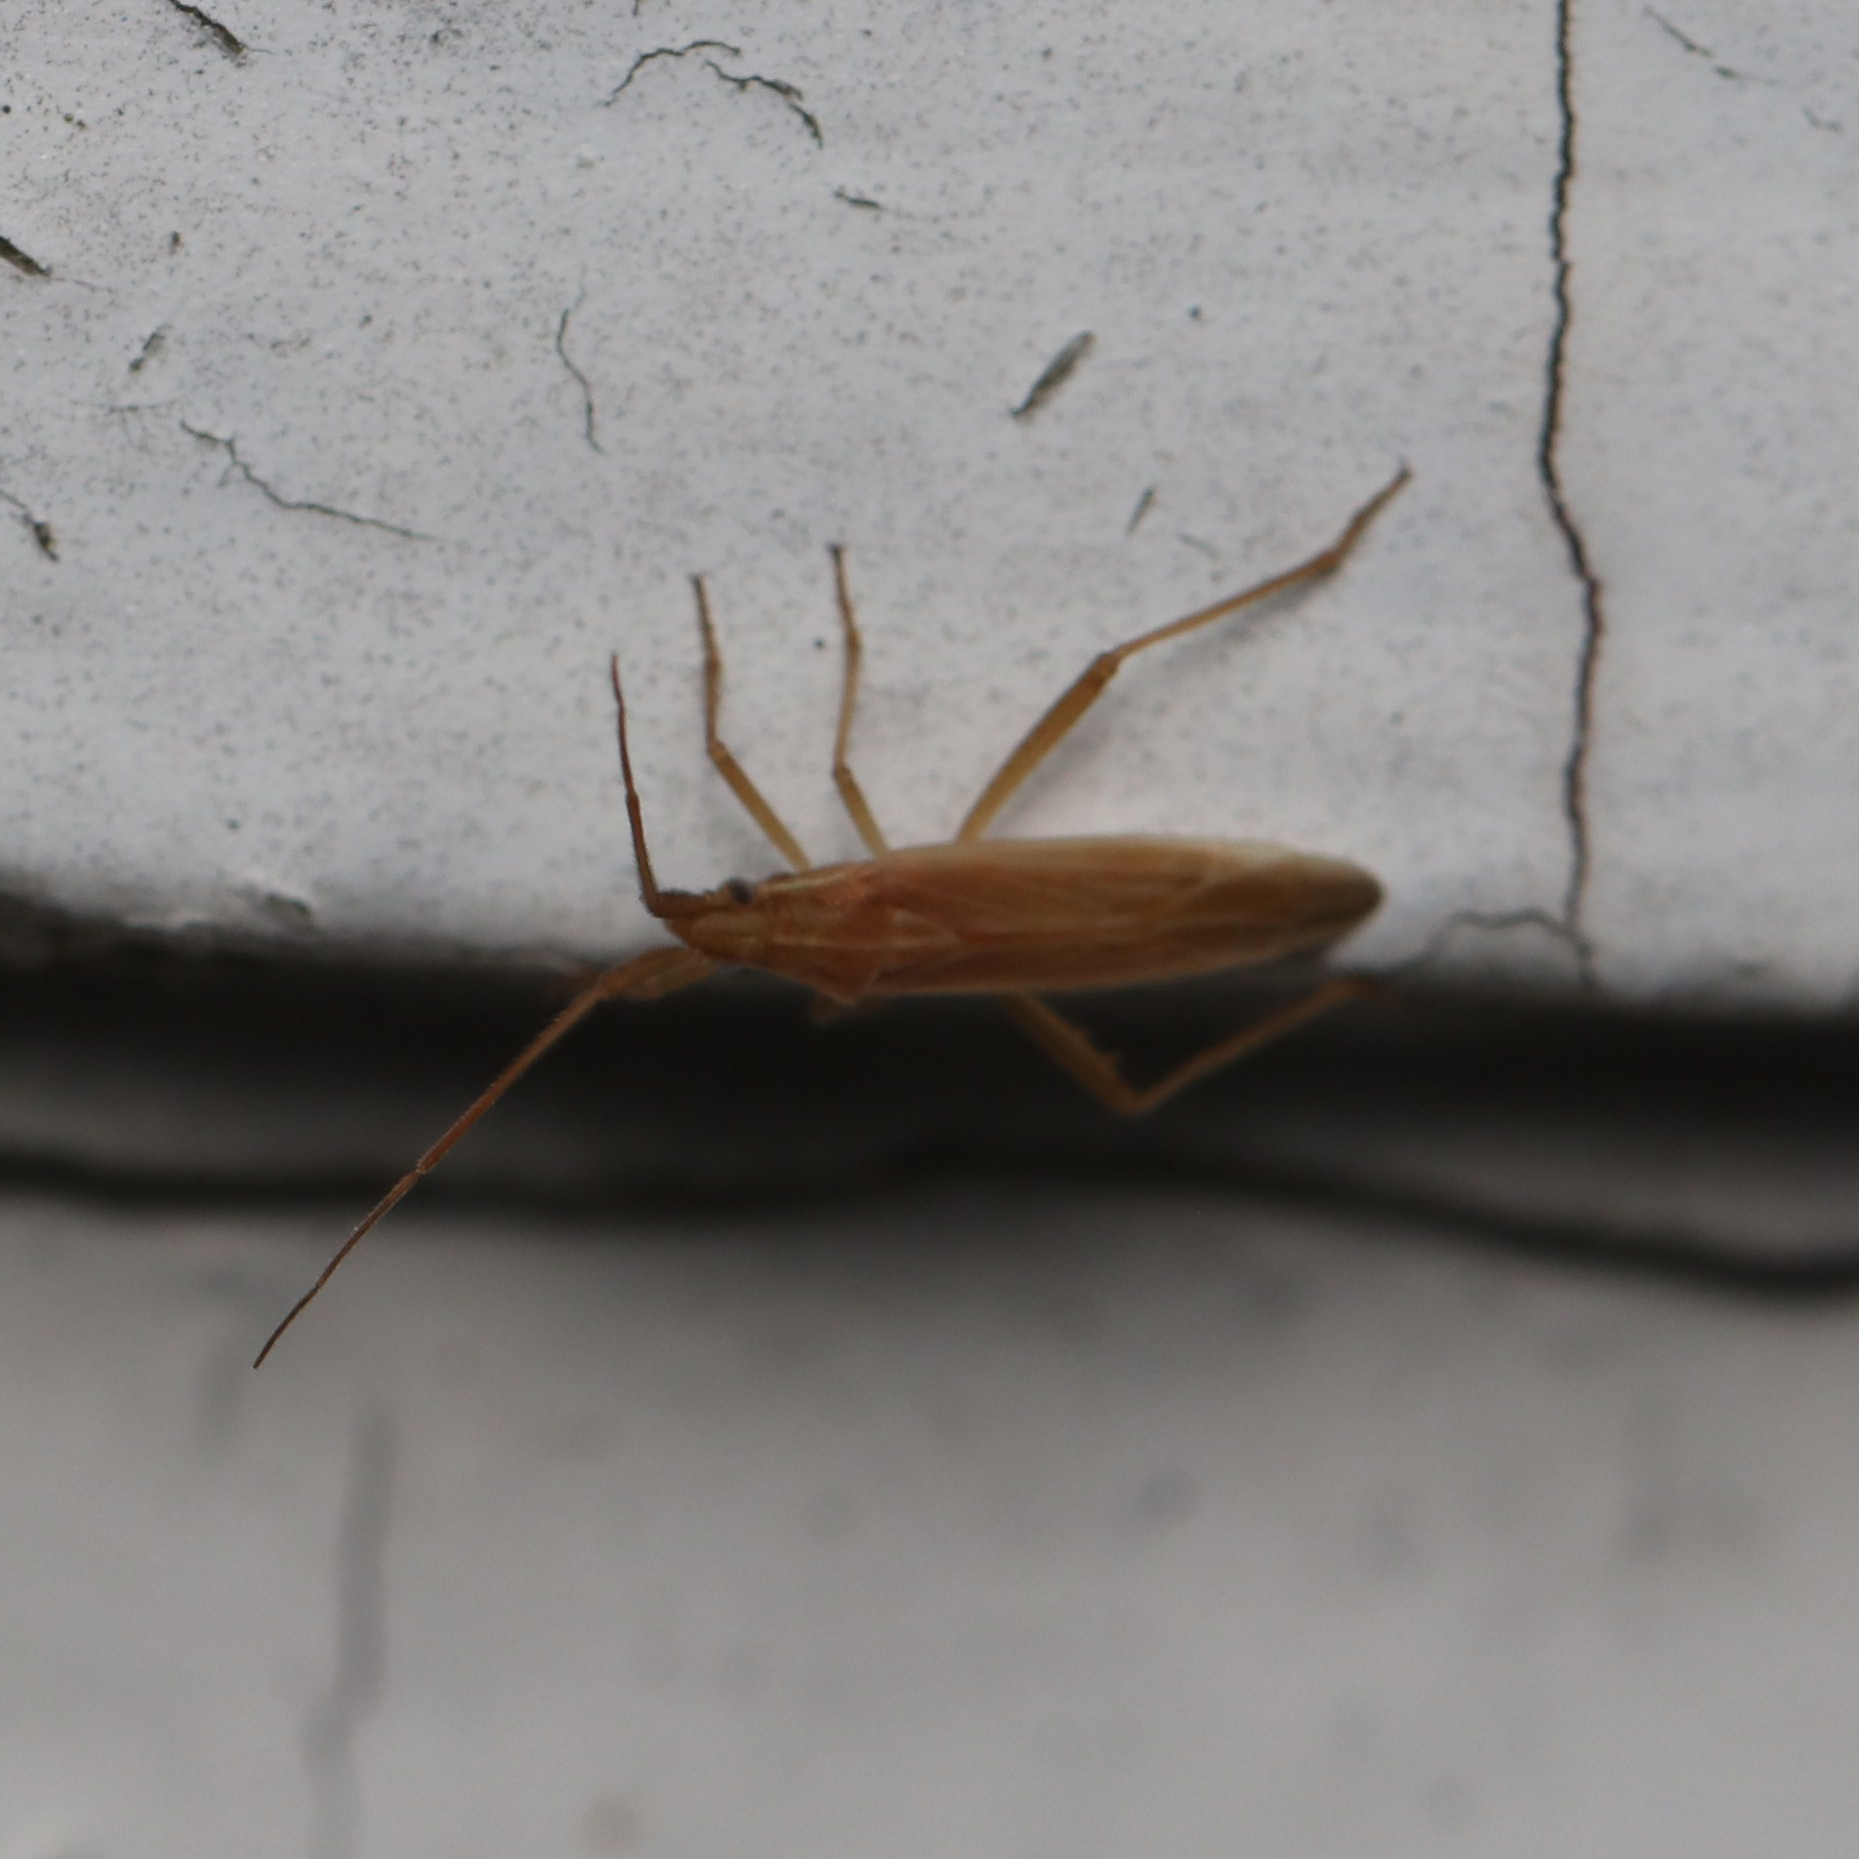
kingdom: Animalia
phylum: Arthropoda
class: Insecta
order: Hemiptera
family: Miridae
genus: Stenodema
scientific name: Stenodema trispinosa
